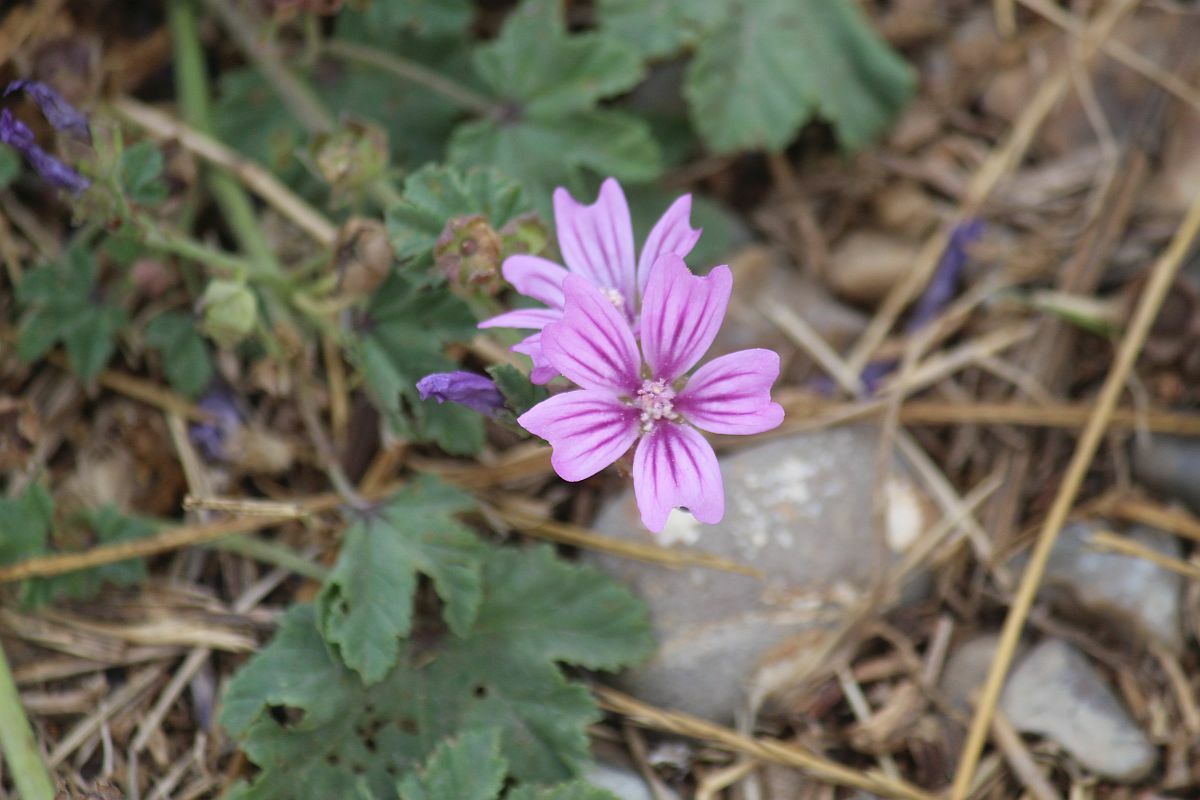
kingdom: Plantae
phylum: Tracheophyta
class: Magnoliopsida
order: Malvales
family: Malvaceae
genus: Malva
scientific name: Malva sylvestris
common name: Common mallow
